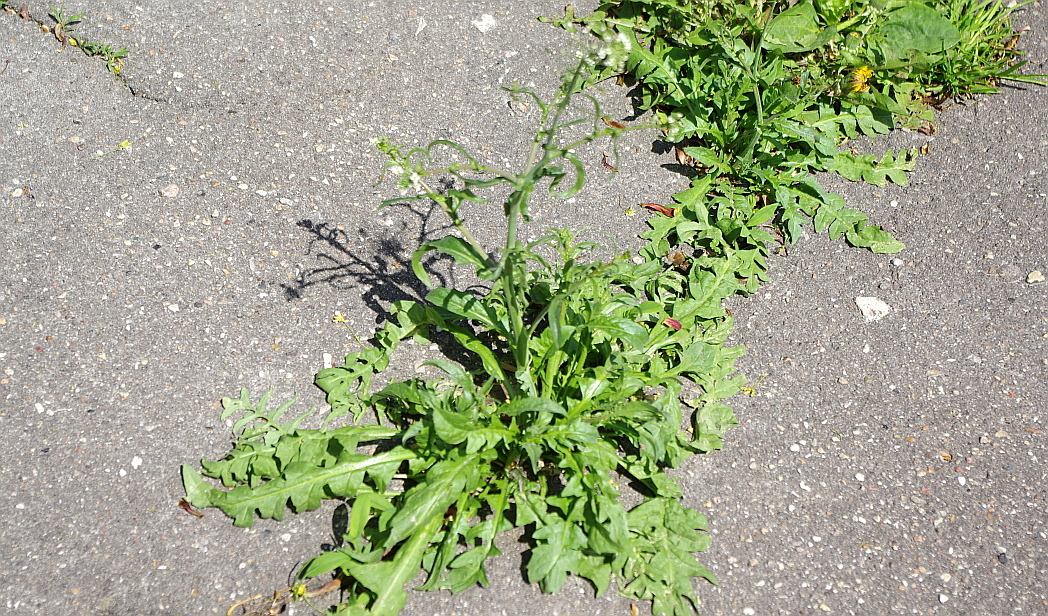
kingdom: Plantae
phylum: Tracheophyta
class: Magnoliopsida
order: Brassicales
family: Brassicaceae
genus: Capsella
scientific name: Capsella bursa-pastoris
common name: Shepherd's purse
